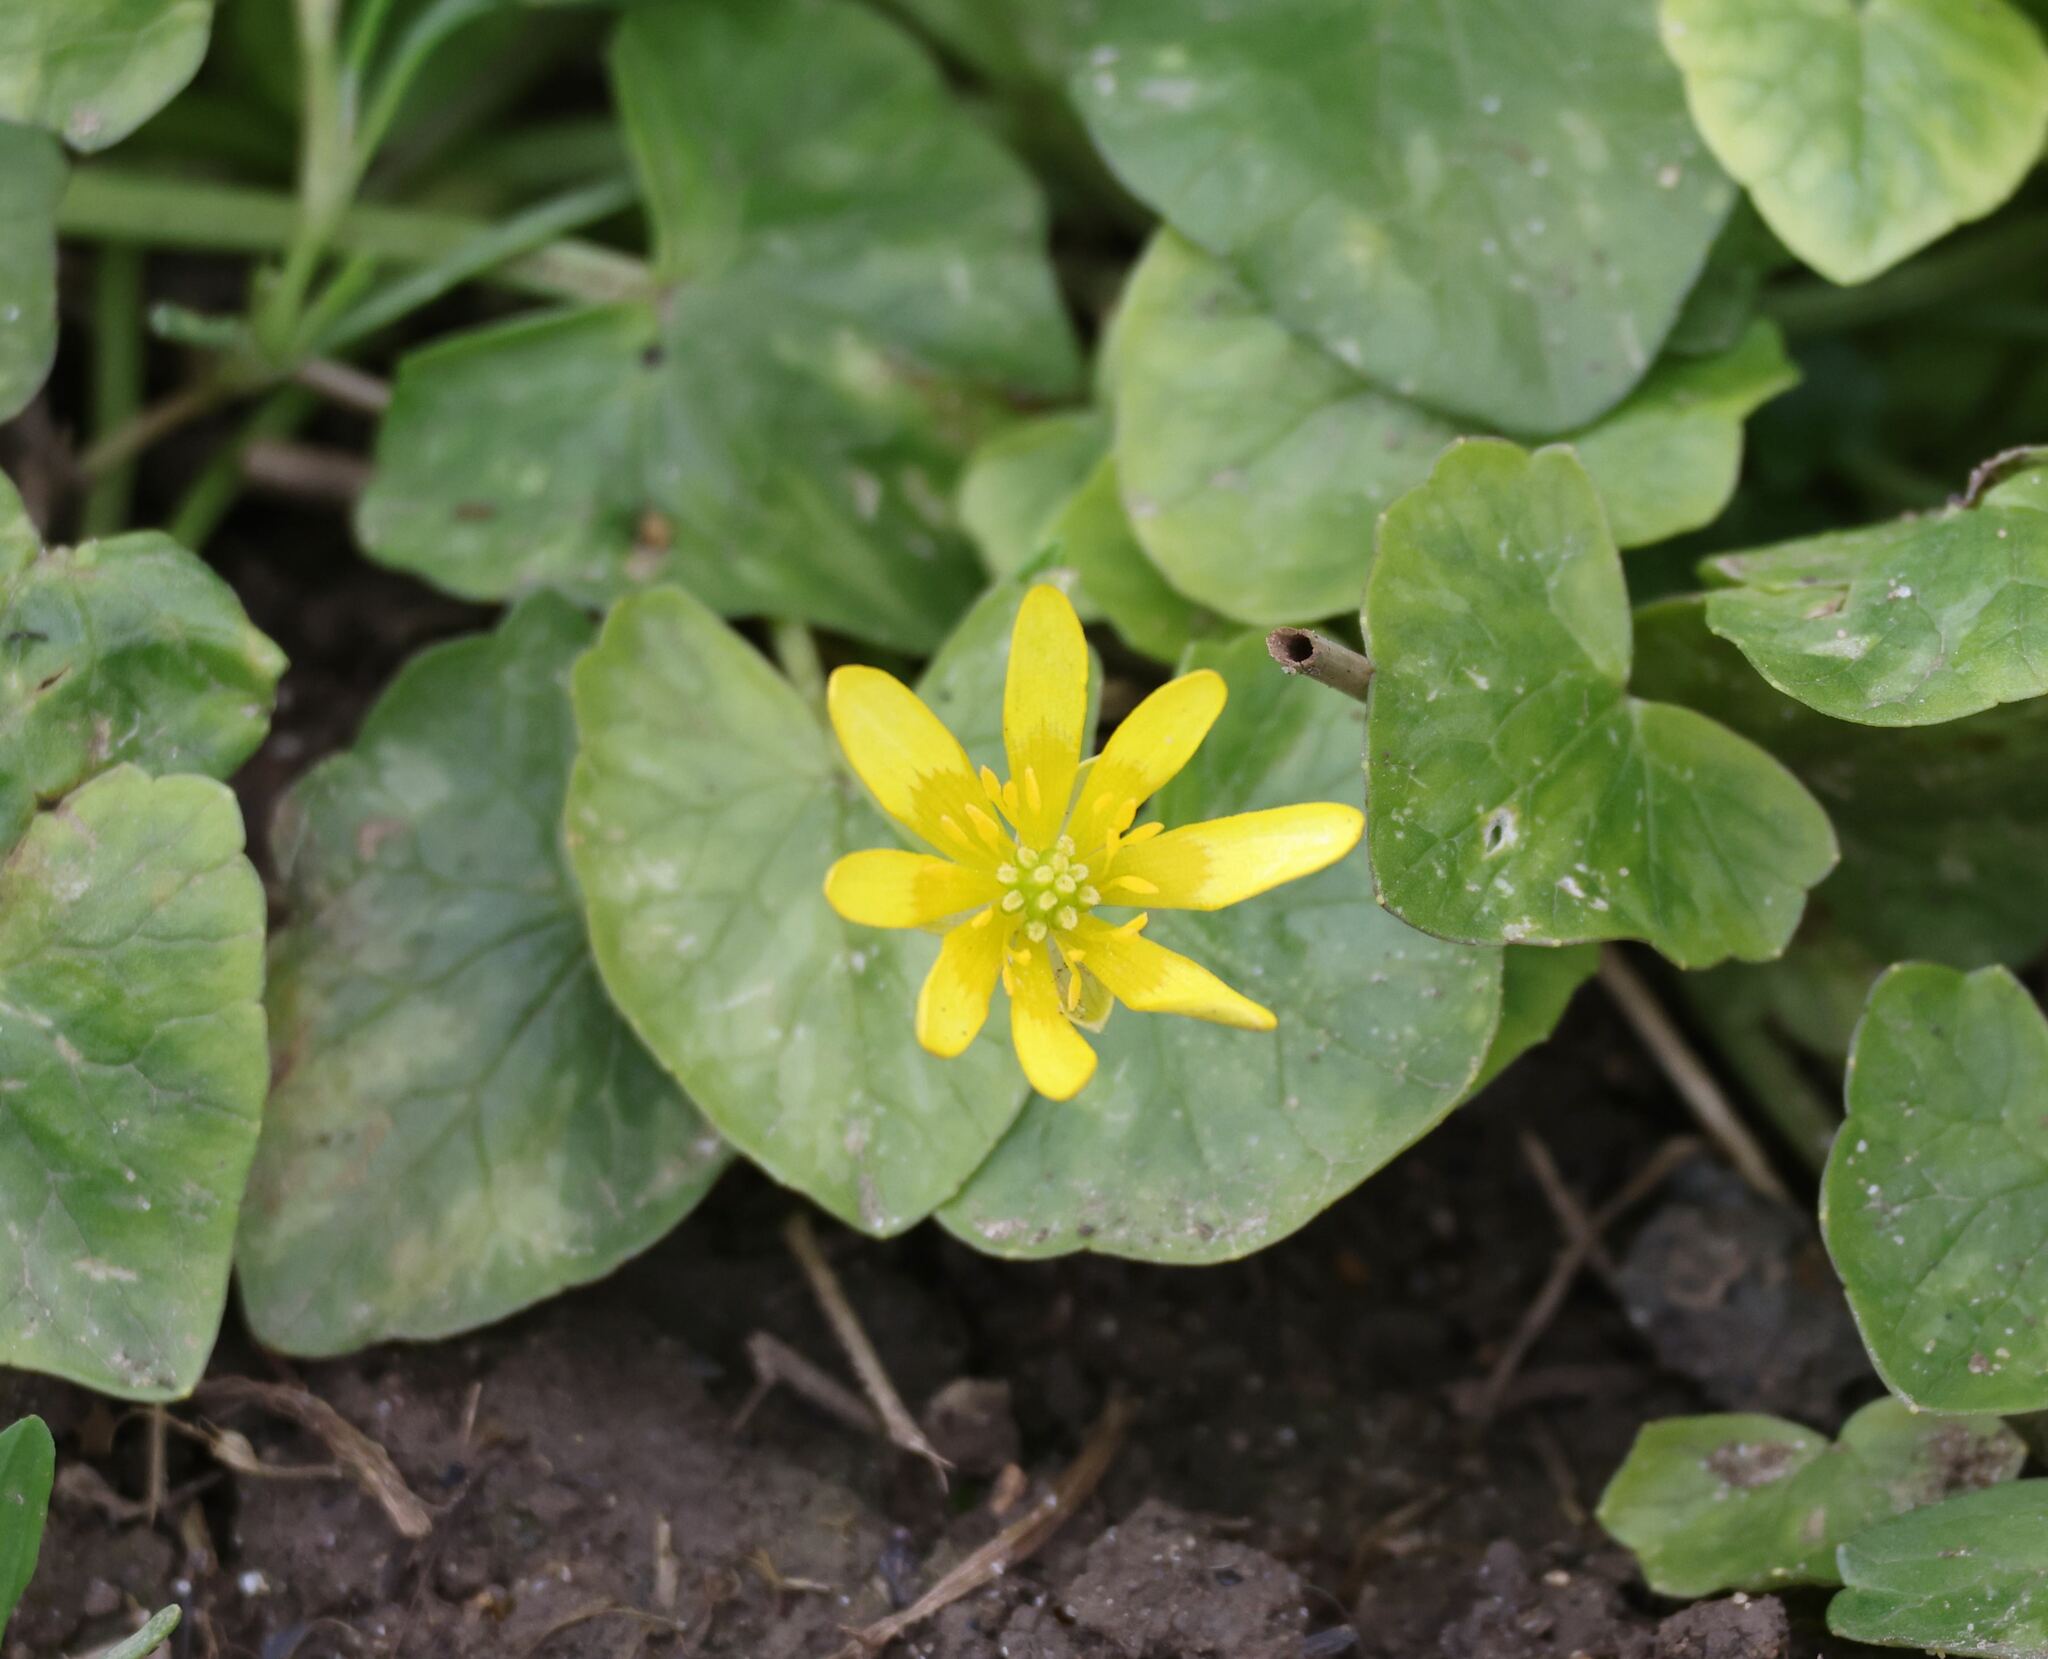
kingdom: Plantae
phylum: Tracheophyta
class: Magnoliopsida
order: Ranunculales
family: Ranunculaceae
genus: Ficaria
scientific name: Ficaria verna
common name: Lesser celandine
